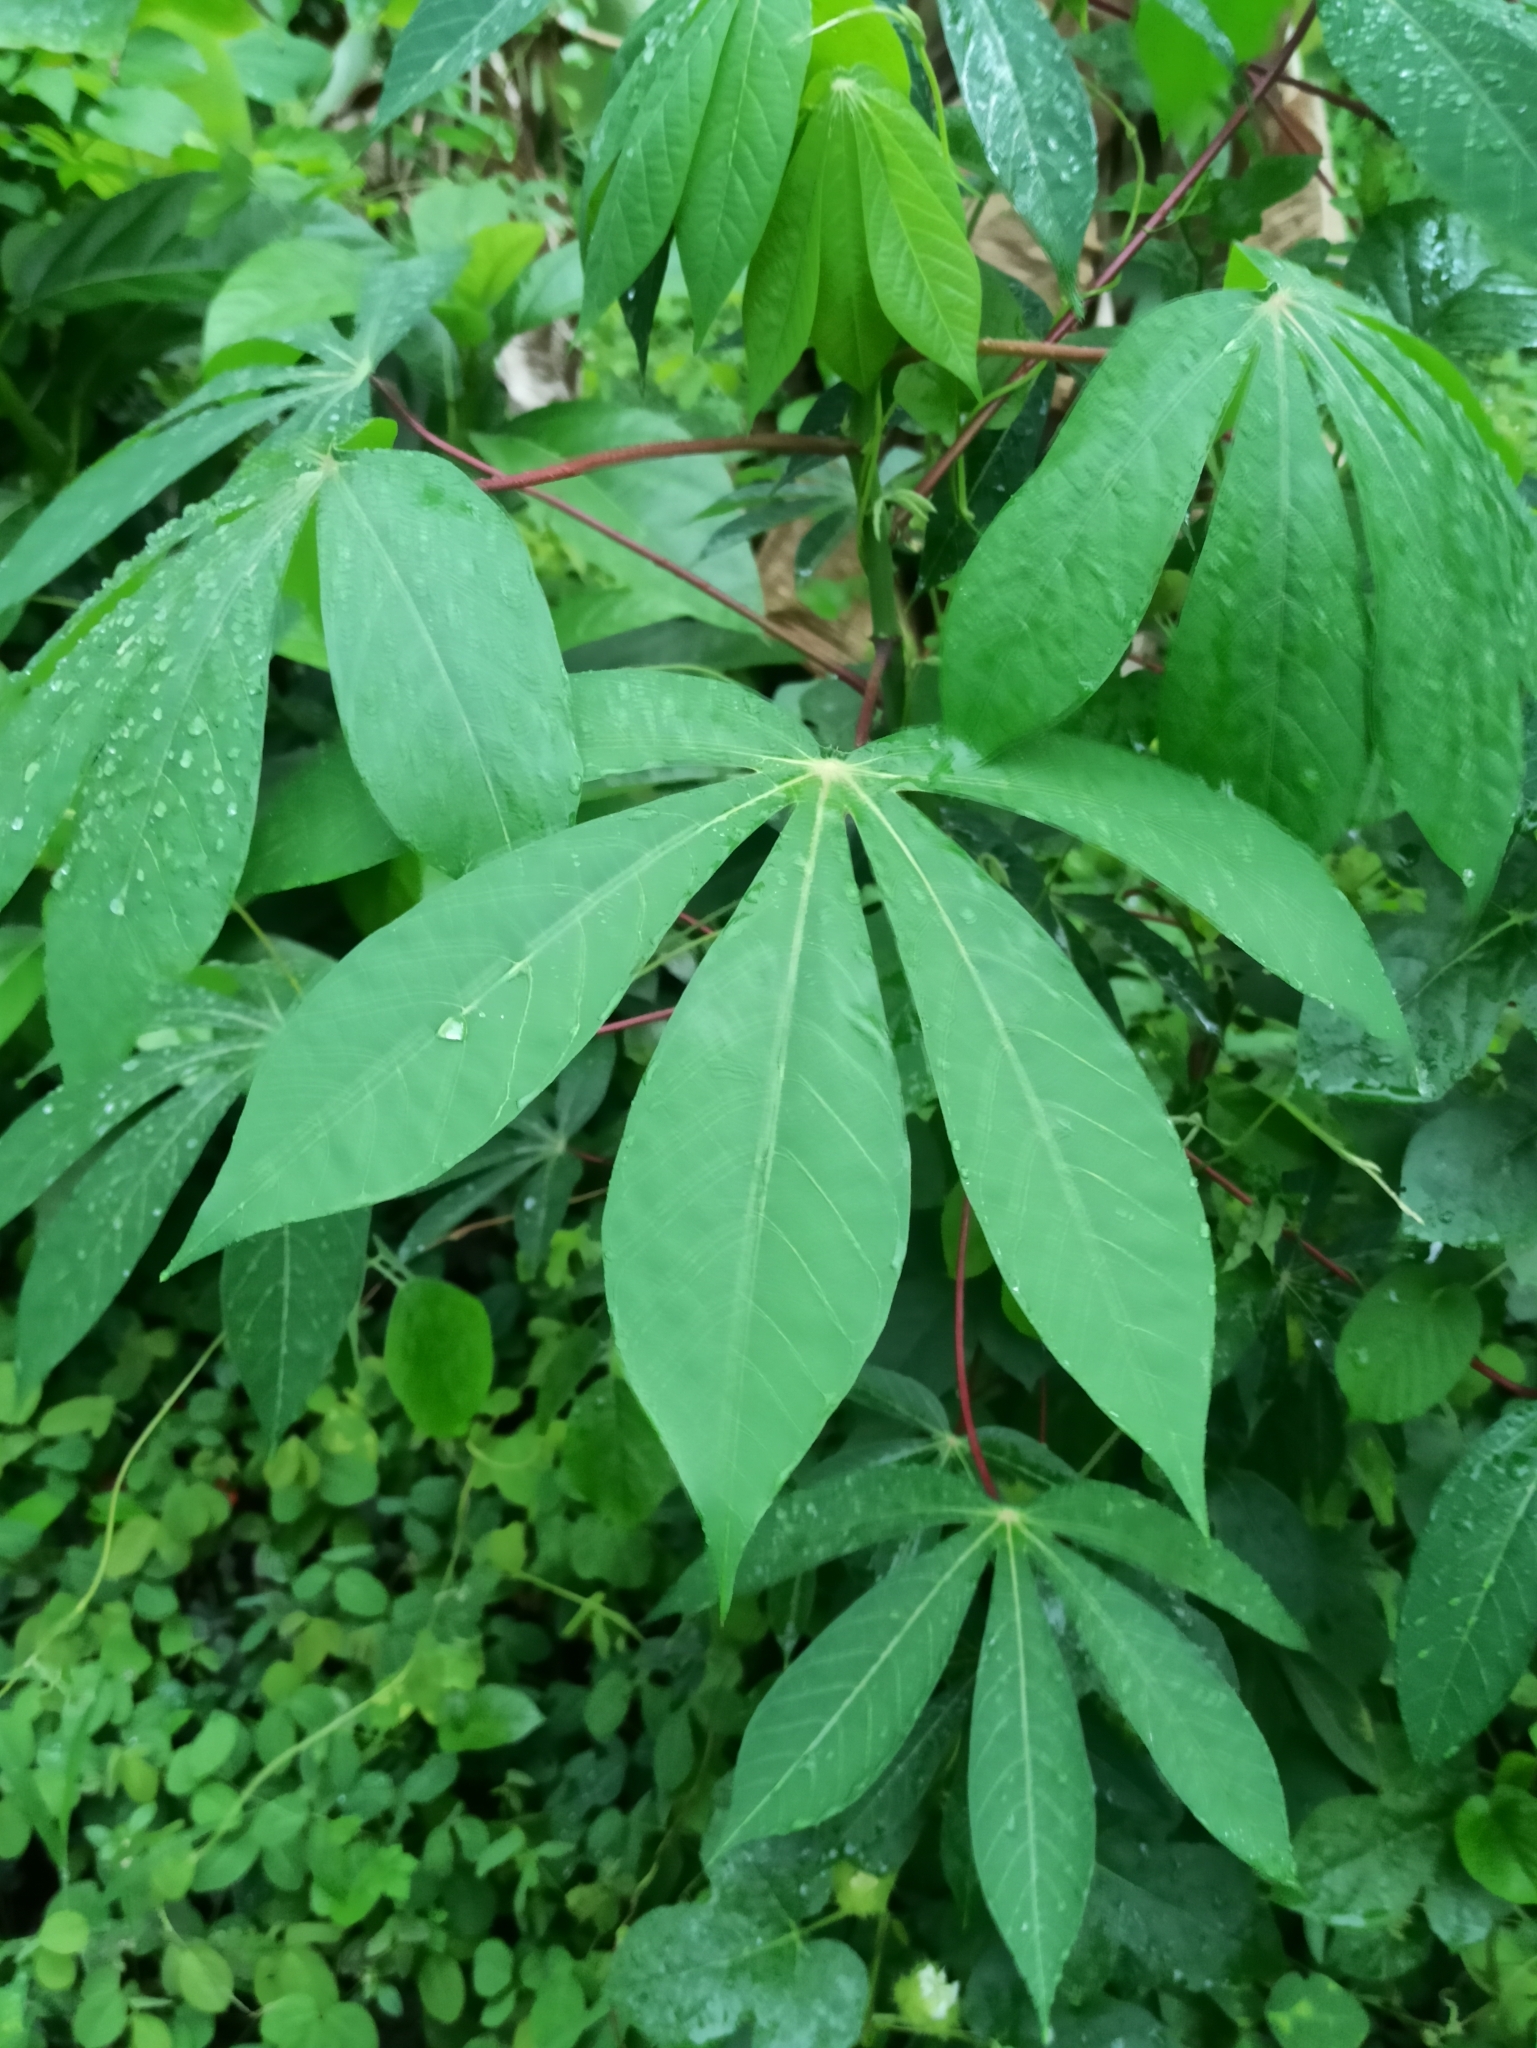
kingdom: Plantae
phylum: Tracheophyta
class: Magnoliopsida
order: Malpighiales
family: Euphorbiaceae
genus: Manihot
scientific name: Manihot esculenta
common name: Cassava
